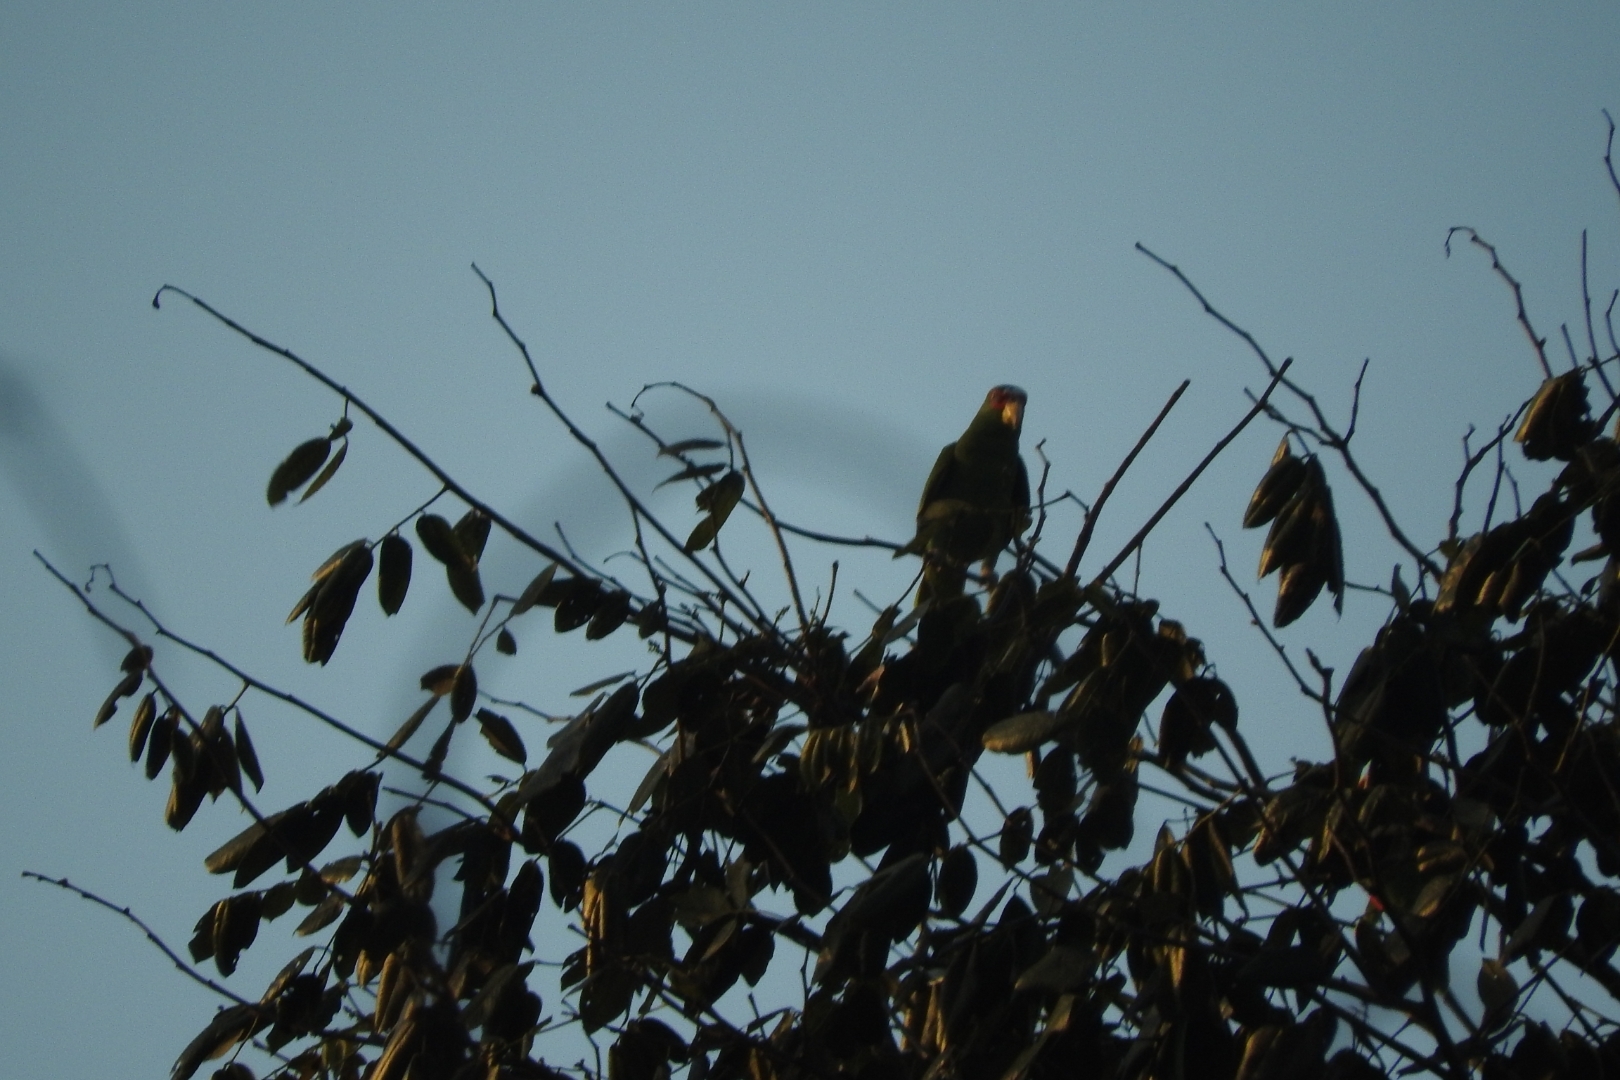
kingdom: Animalia
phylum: Chordata
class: Aves
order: Psittaciformes
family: Psittacidae
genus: Amazona
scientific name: Amazona albifrons
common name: White-fronted amazon
